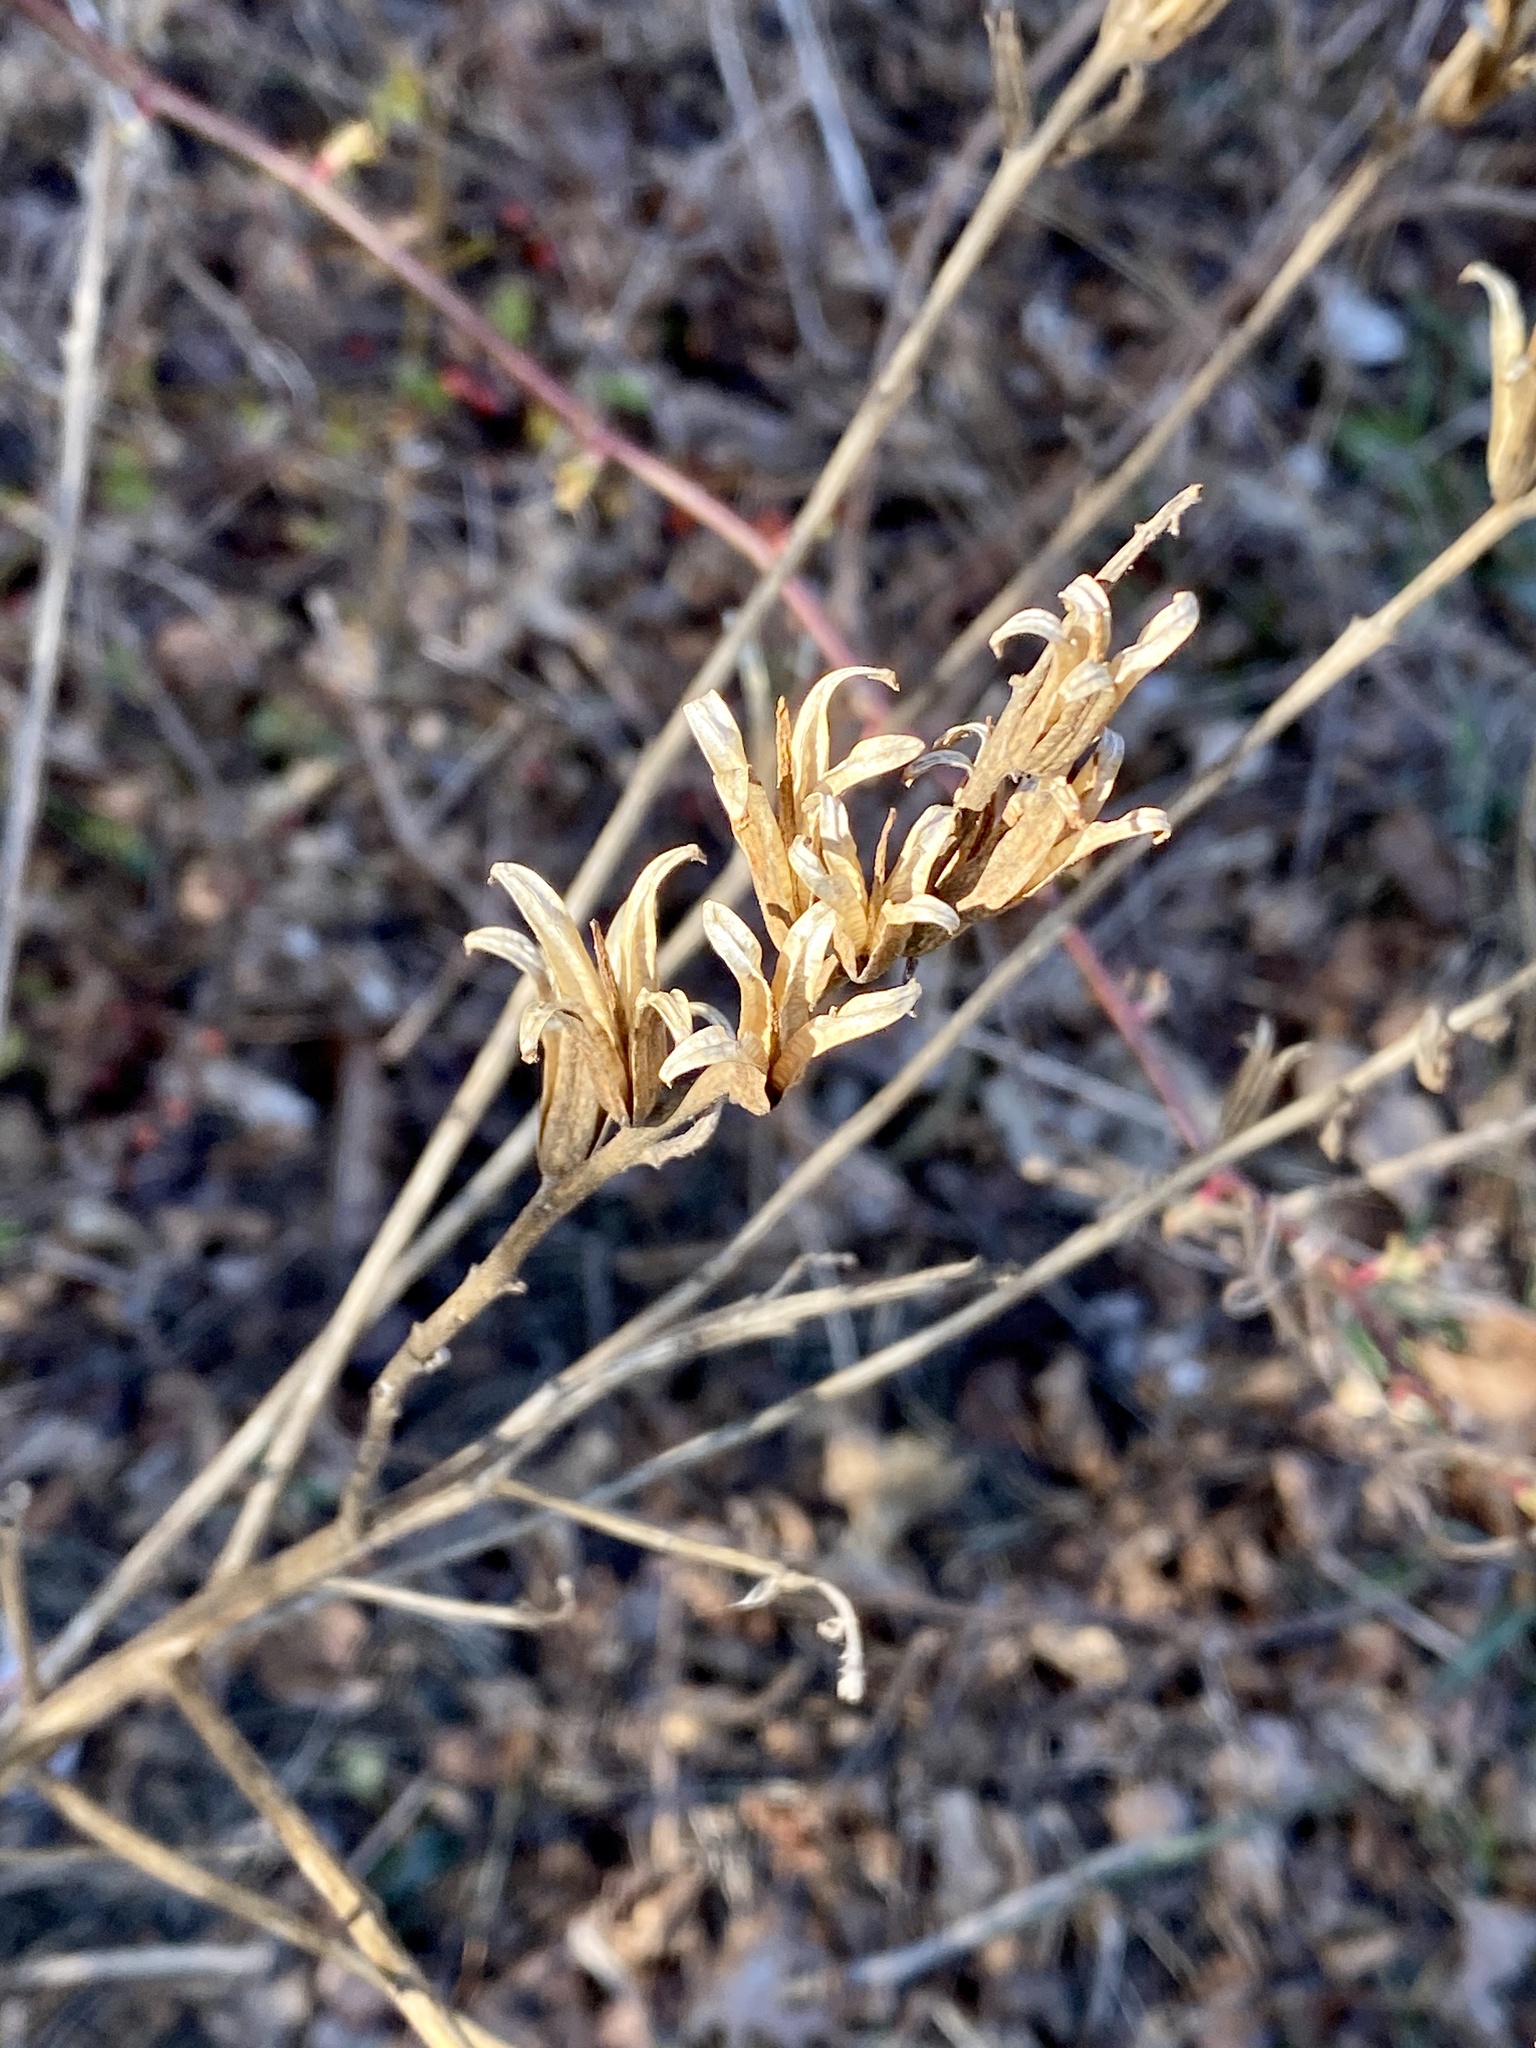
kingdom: Plantae
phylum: Tracheophyta
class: Magnoliopsida
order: Myrtales
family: Onagraceae
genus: Oenothera
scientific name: Oenothera biennis
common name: Common evening-primrose
